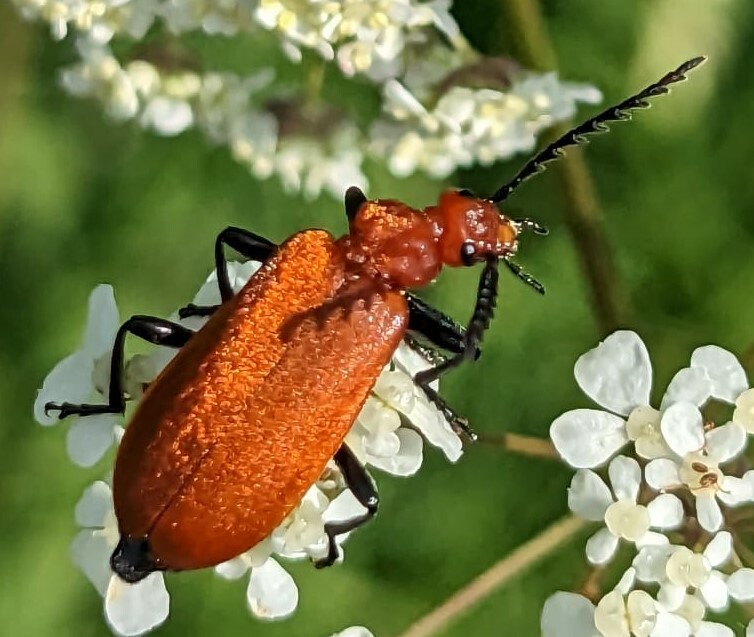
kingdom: Animalia
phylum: Arthropoda
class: Insecta
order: Coleoptera
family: Pyrochroidae
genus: Pyrochroa
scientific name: Pyrochroa serraticornis
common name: Red-headed cardinal beetle
